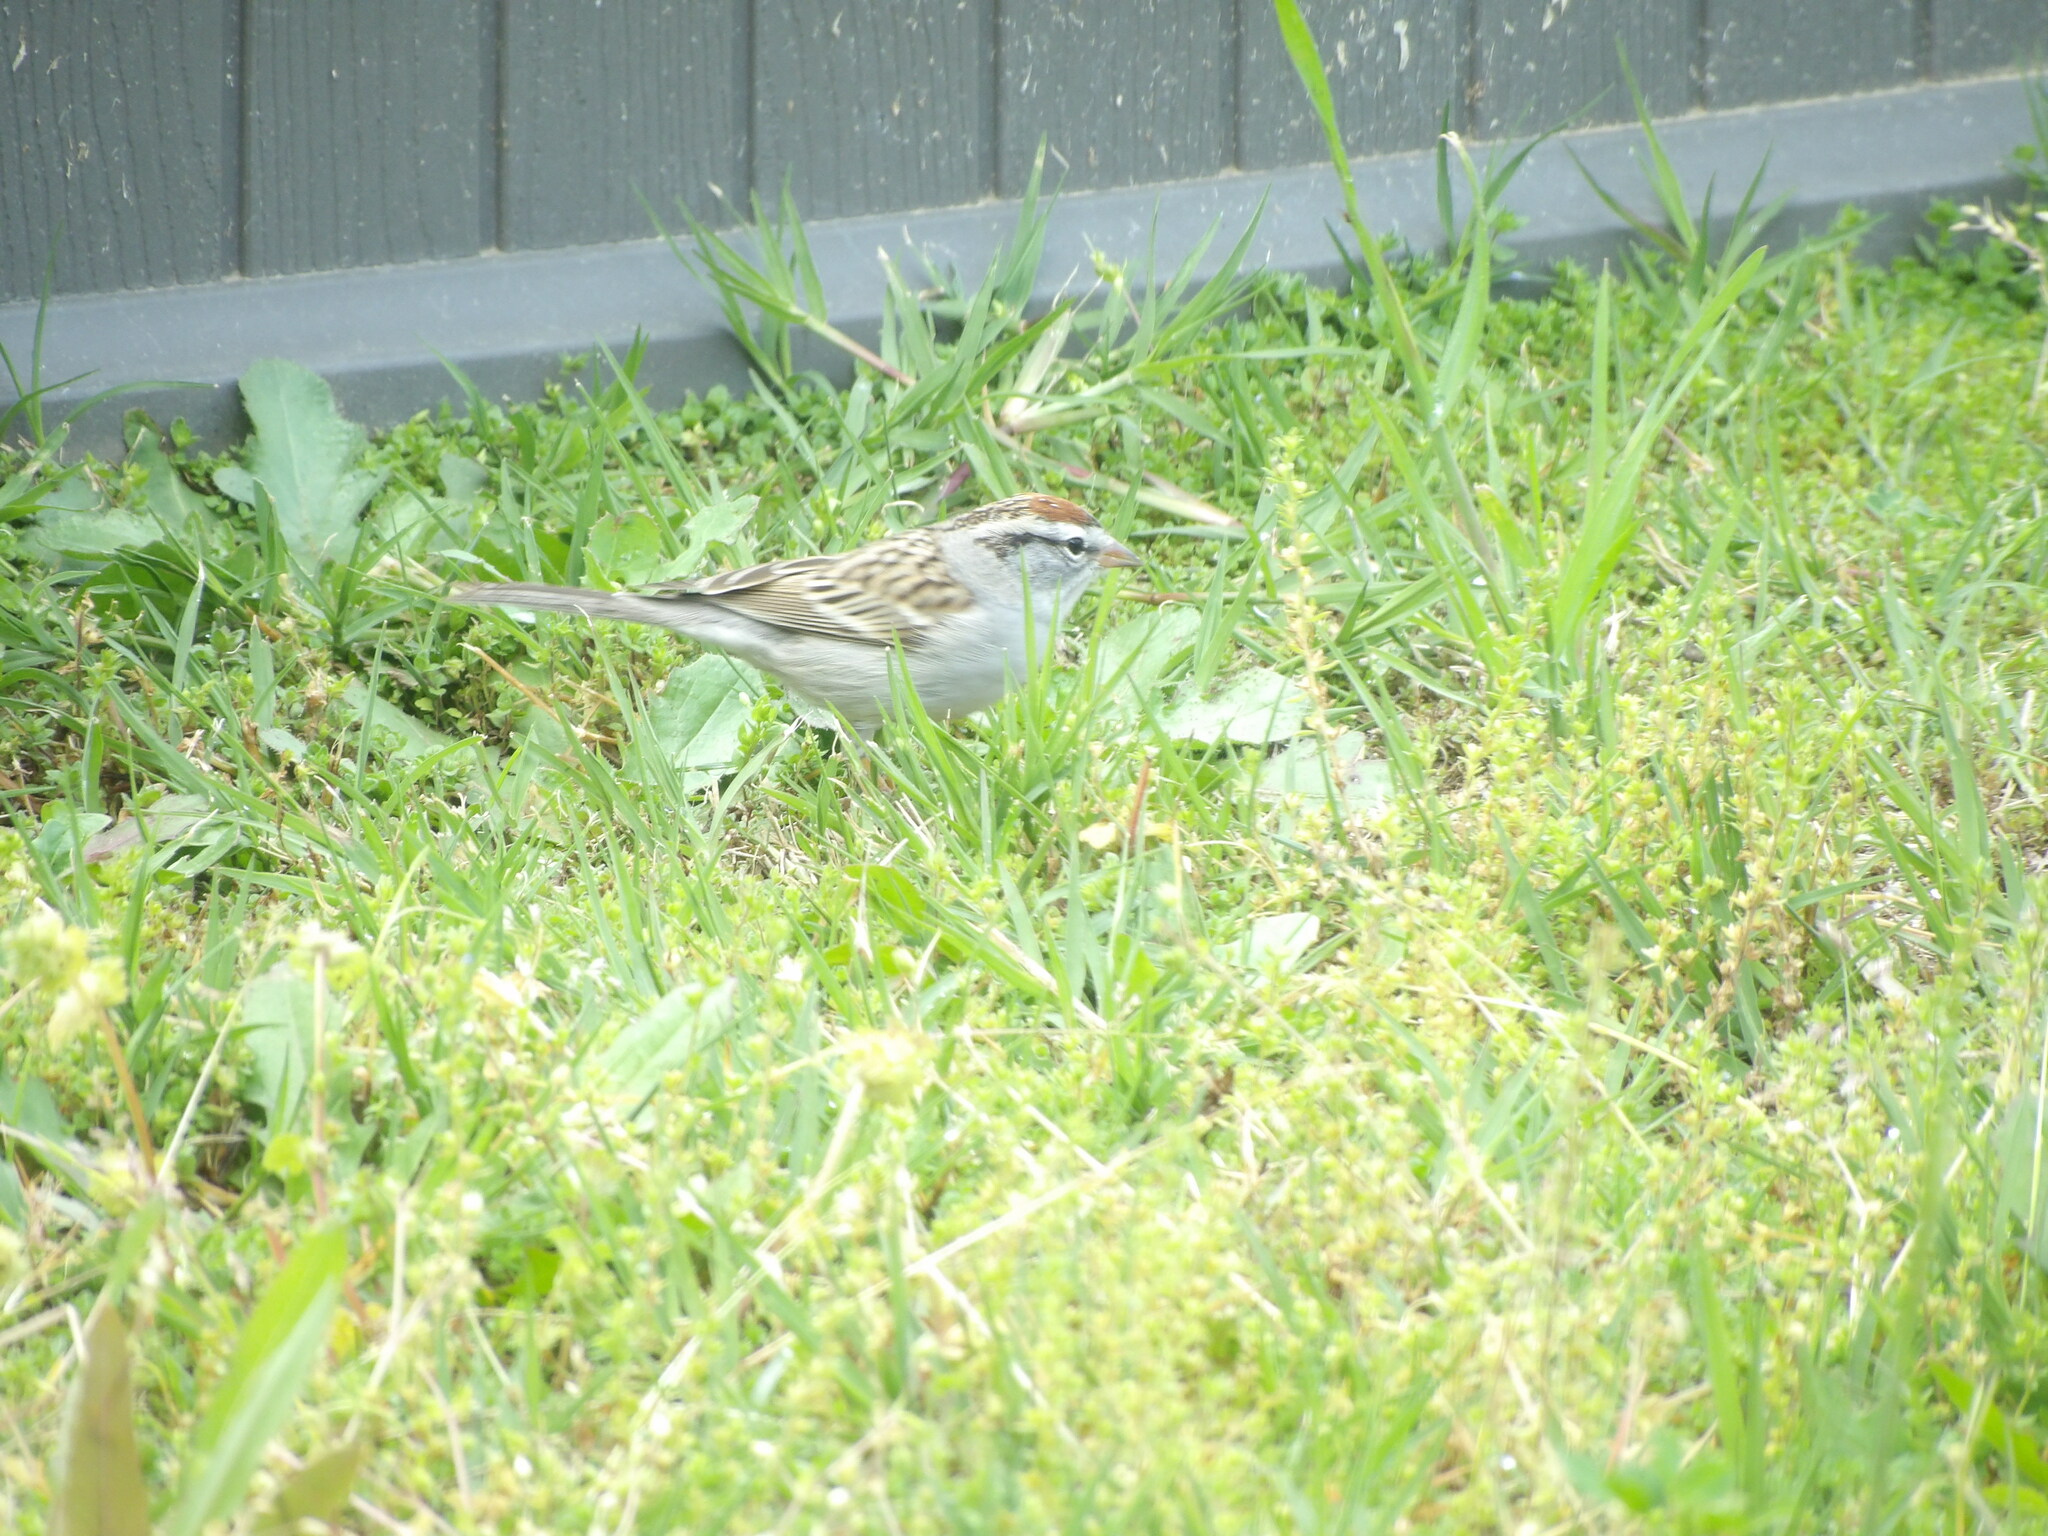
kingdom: Animalia
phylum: Chordata
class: Aves
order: Passeriformes
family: Passerellidae
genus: Spizella
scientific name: Spizella passerina
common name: Chipping sparrow
